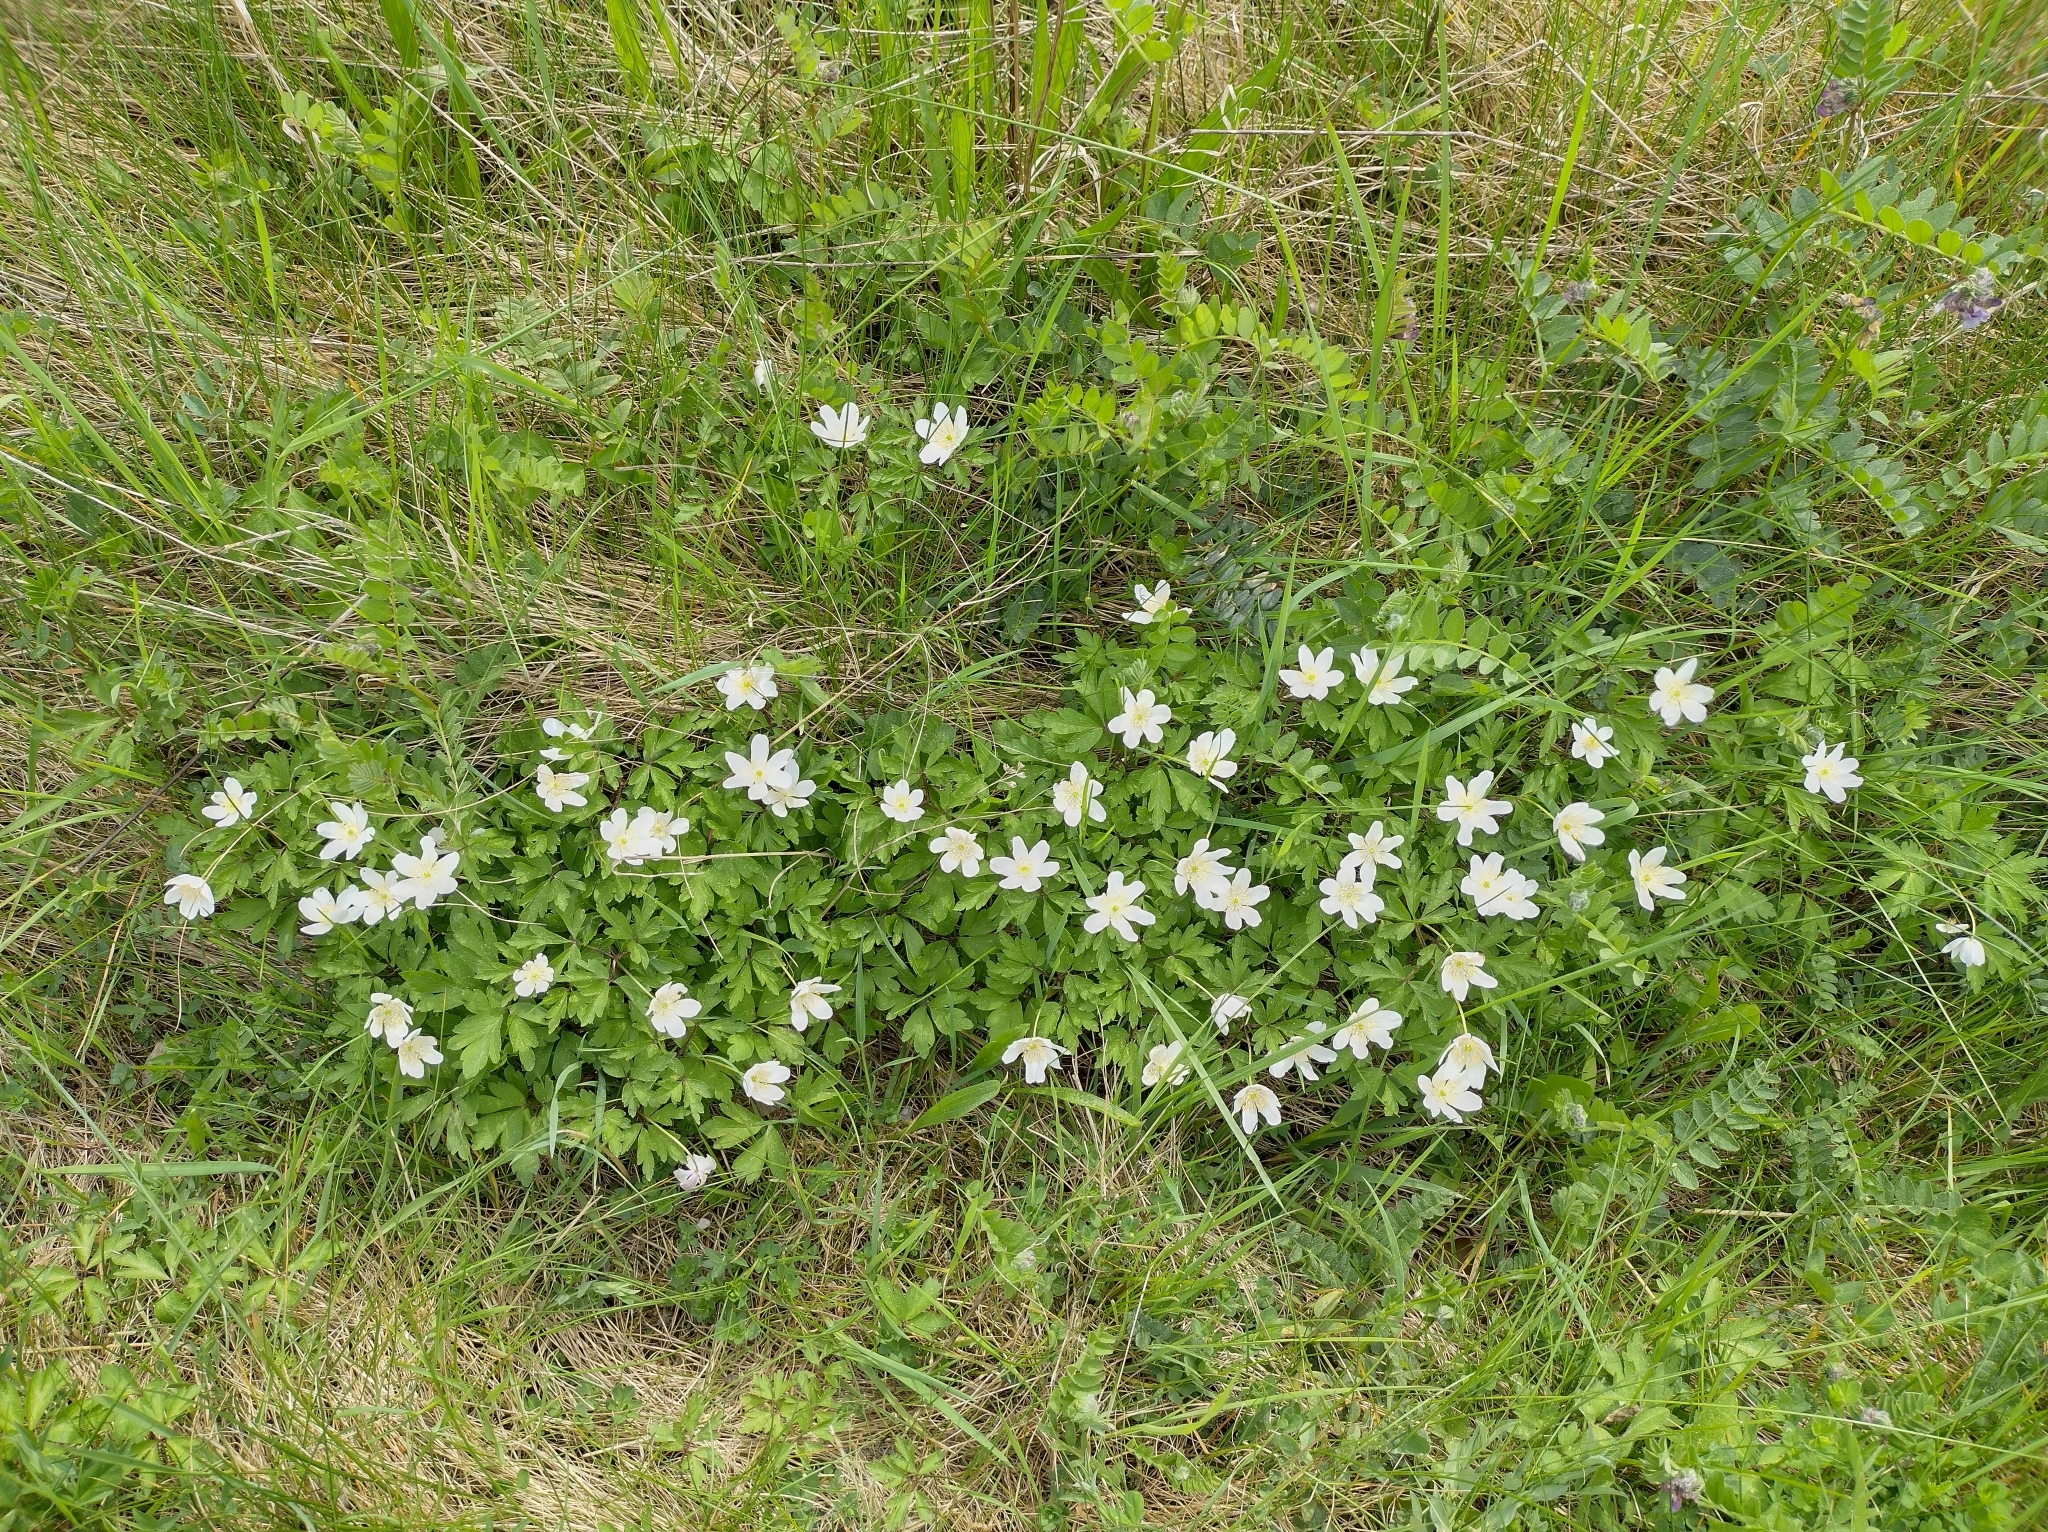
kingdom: Plantae
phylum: Tracheophyta
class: Magnoliopsida
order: Ranunculales
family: Ranunculaceae
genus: Anemone
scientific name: Anemone nemorosa
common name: Wood anemone
